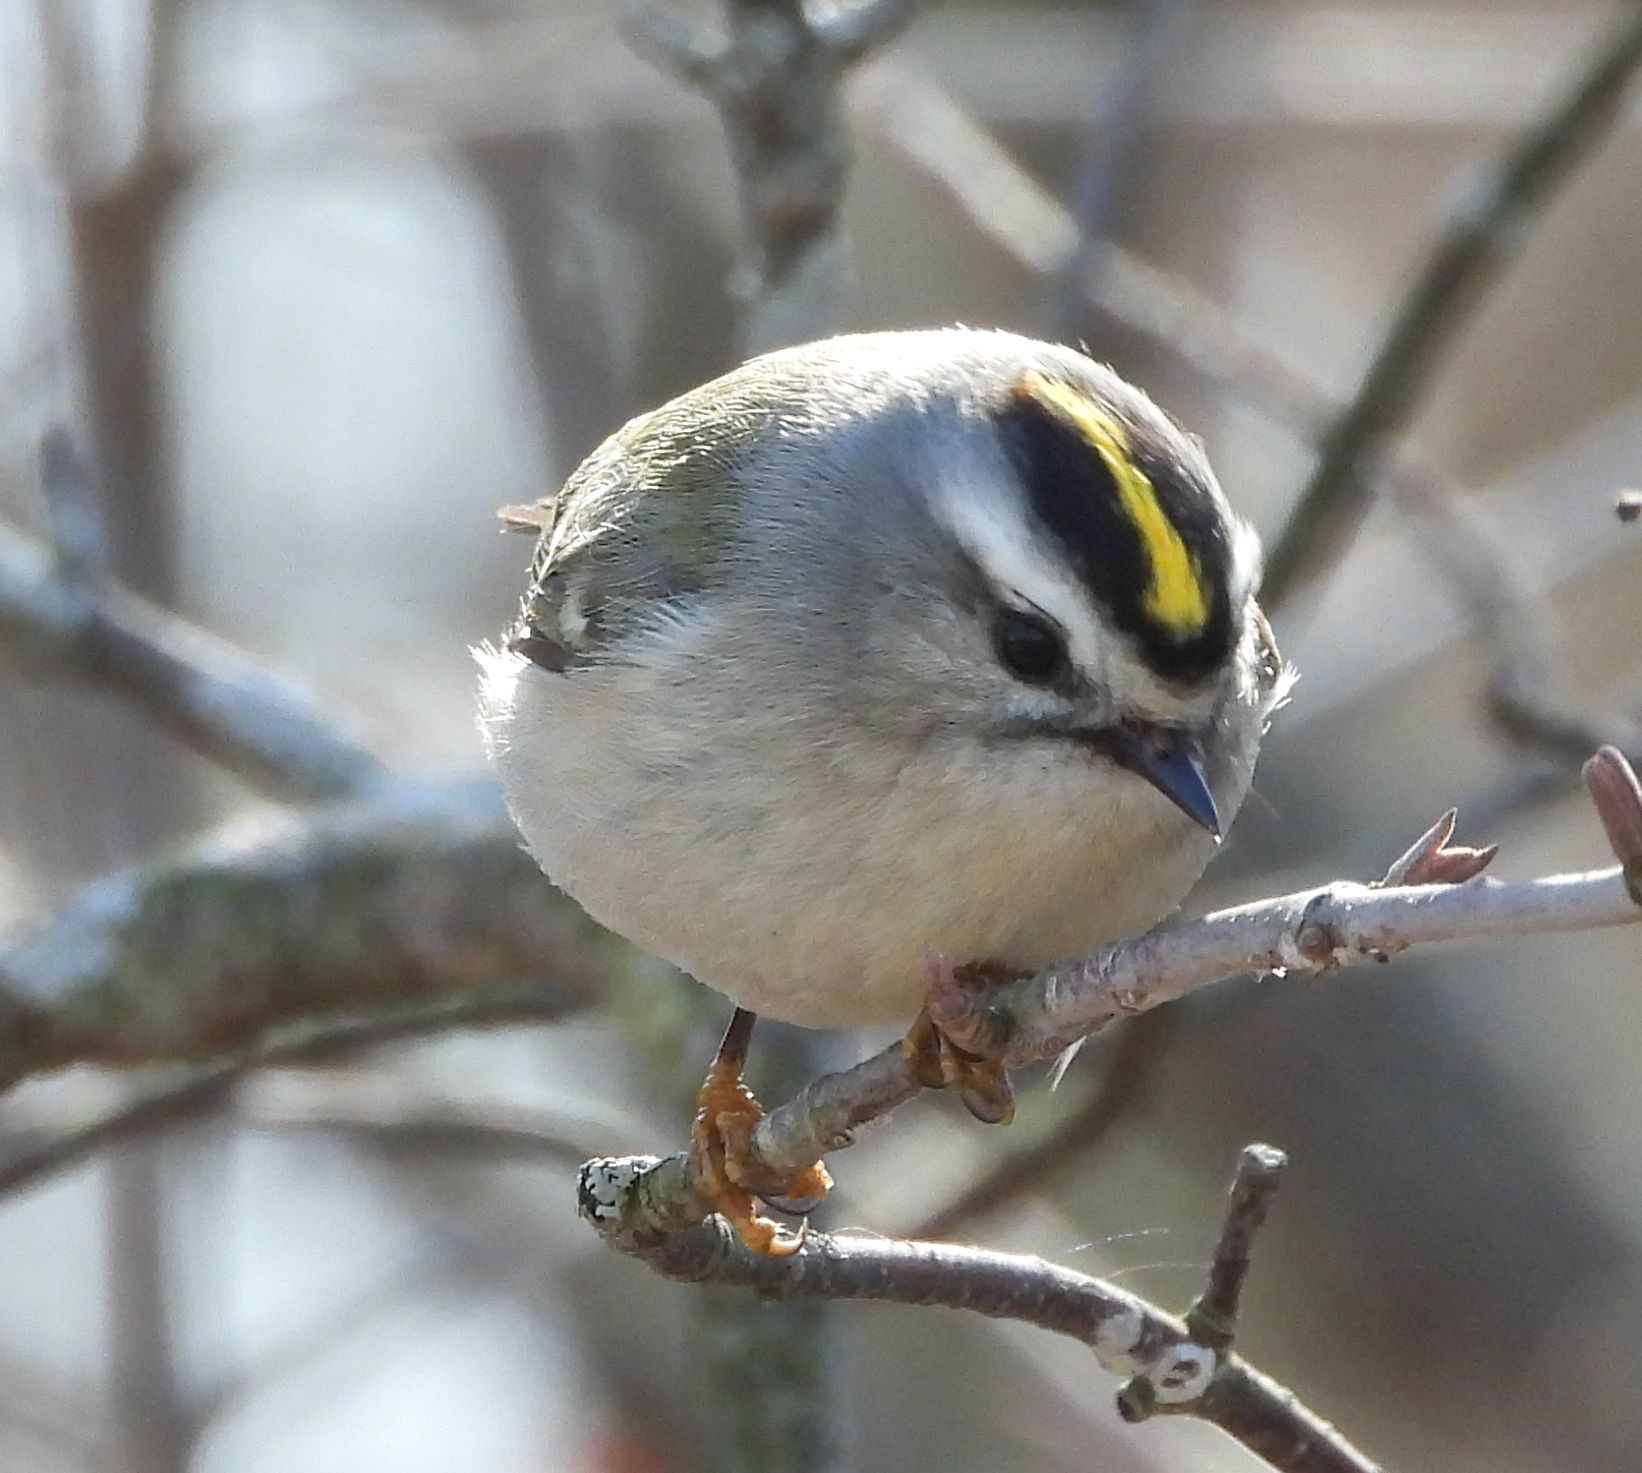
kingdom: Animalia
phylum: Chordata
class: Aves
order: Passeriformes
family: Regulidae
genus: Regulus
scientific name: Regulus satrapa
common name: Golden-crowned kinglet
